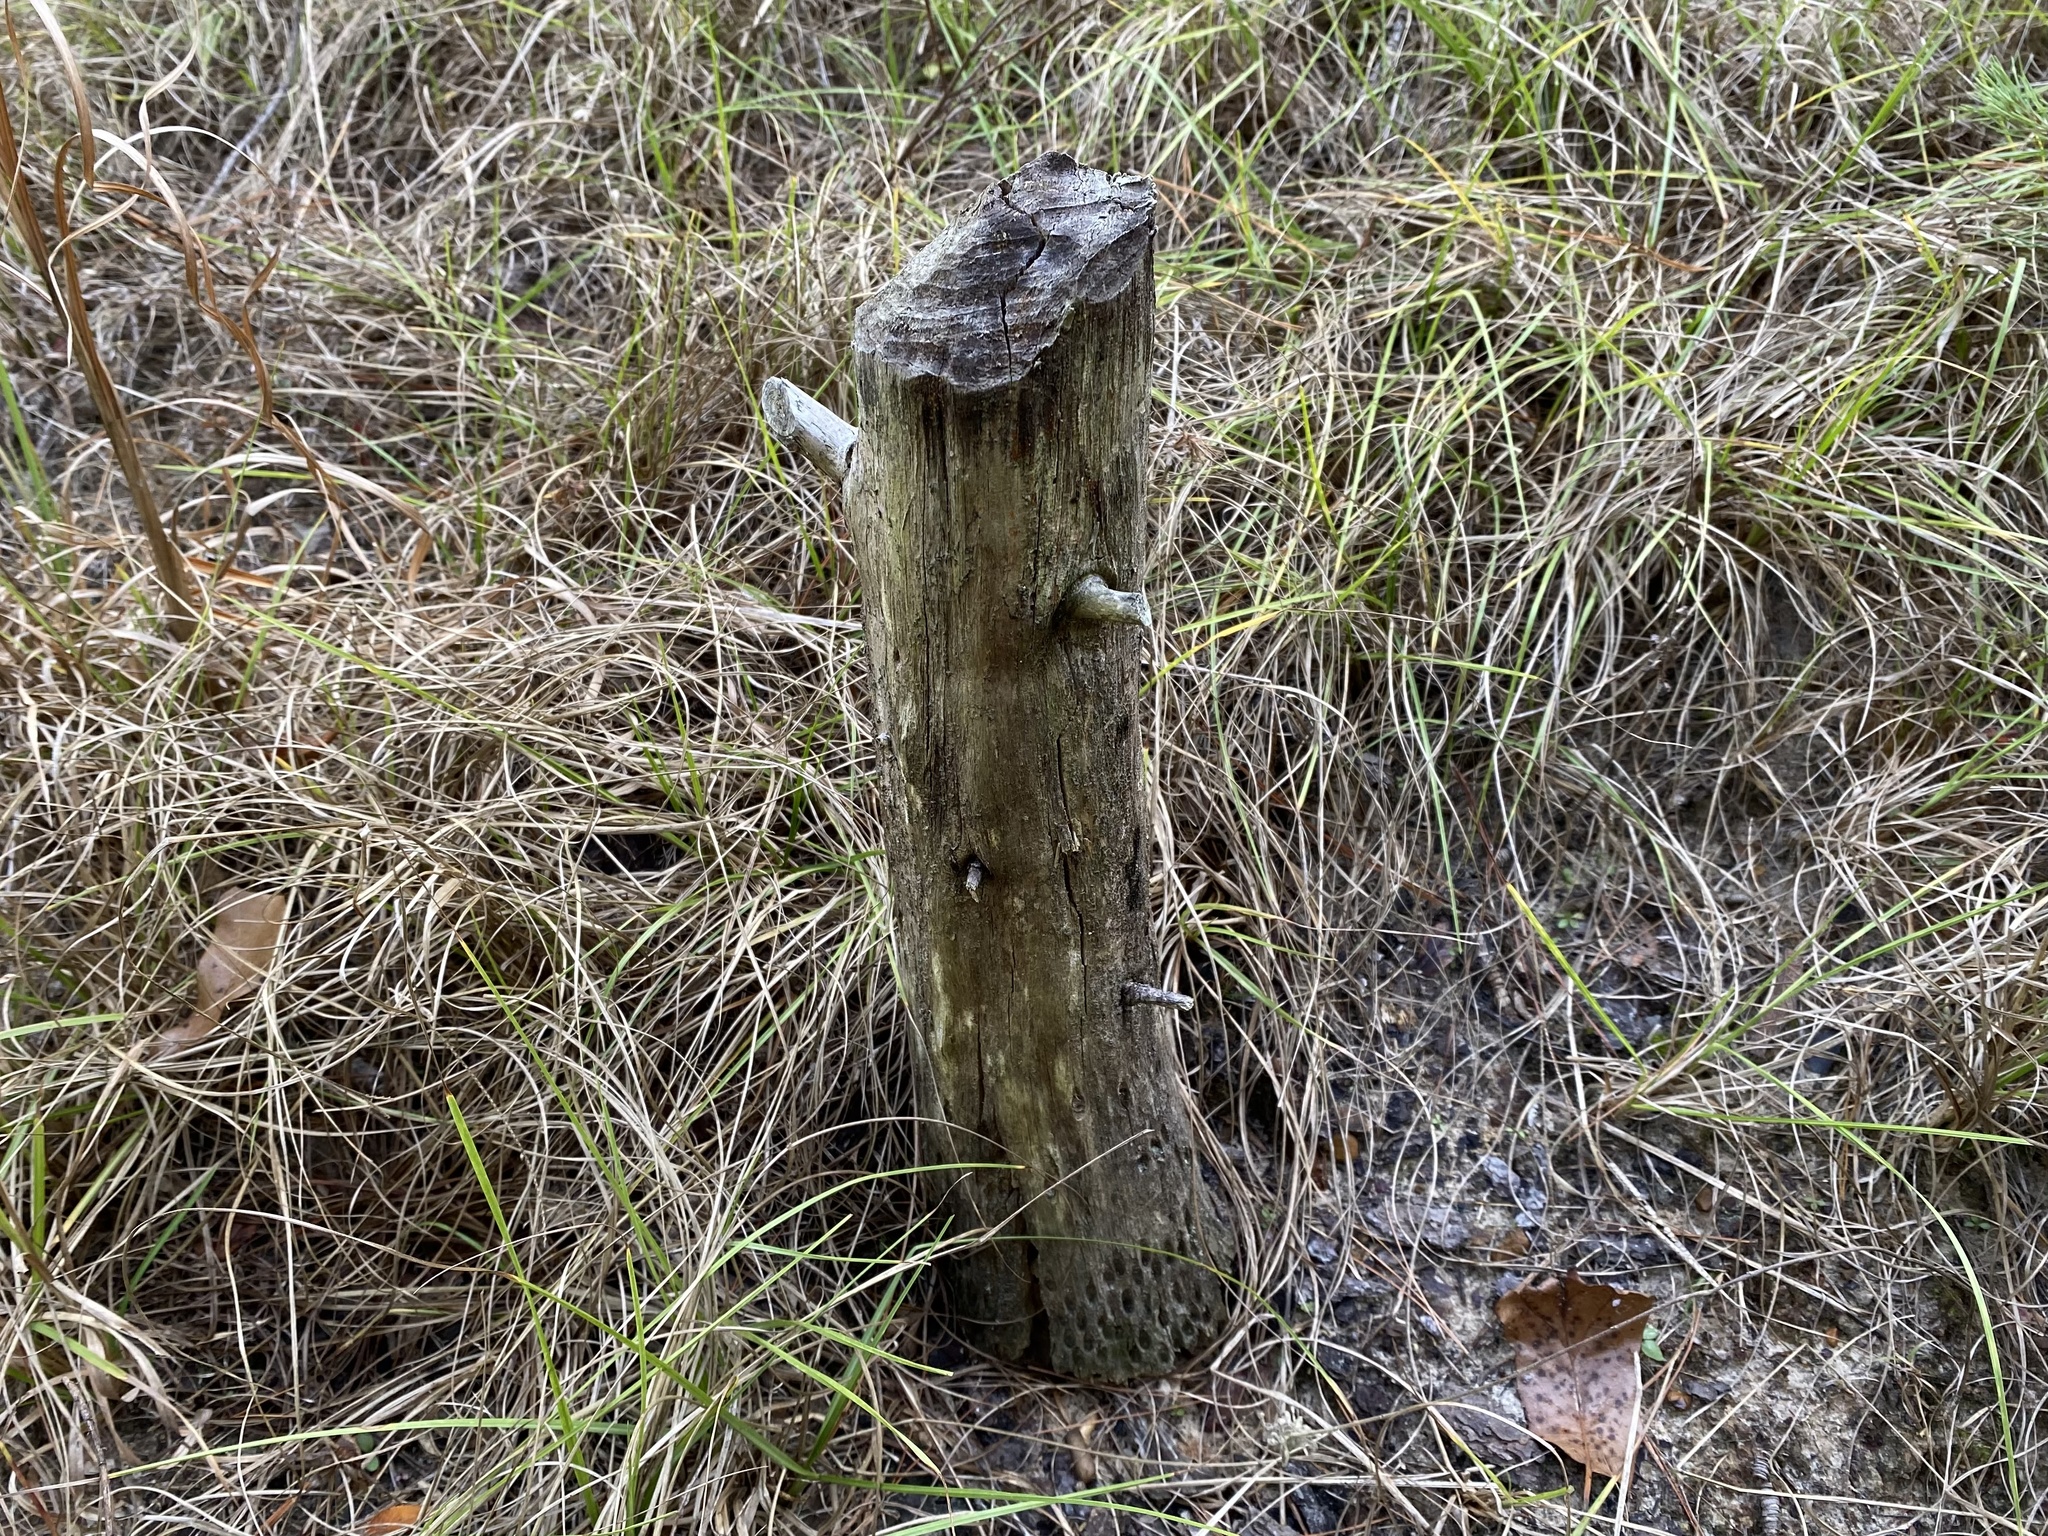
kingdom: Animalia
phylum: Chordata
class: Mammalia
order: Rodentia
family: Castoridae
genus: Castor
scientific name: Castor canadensis
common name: American beaver
